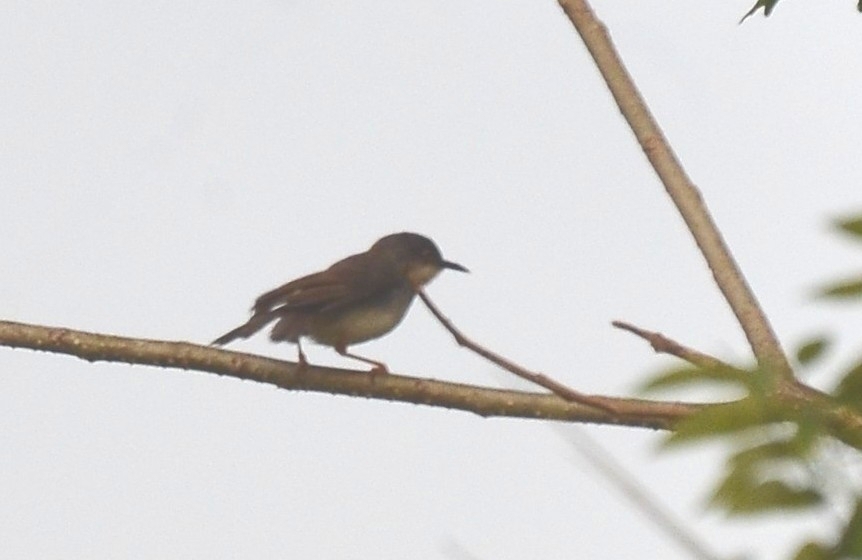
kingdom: Animalia
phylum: Chordata
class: Aves
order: Passeriformes
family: Cisticolidae
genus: Prinia
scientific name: Prinia hodgsonii
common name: Grey-breasted prinia
